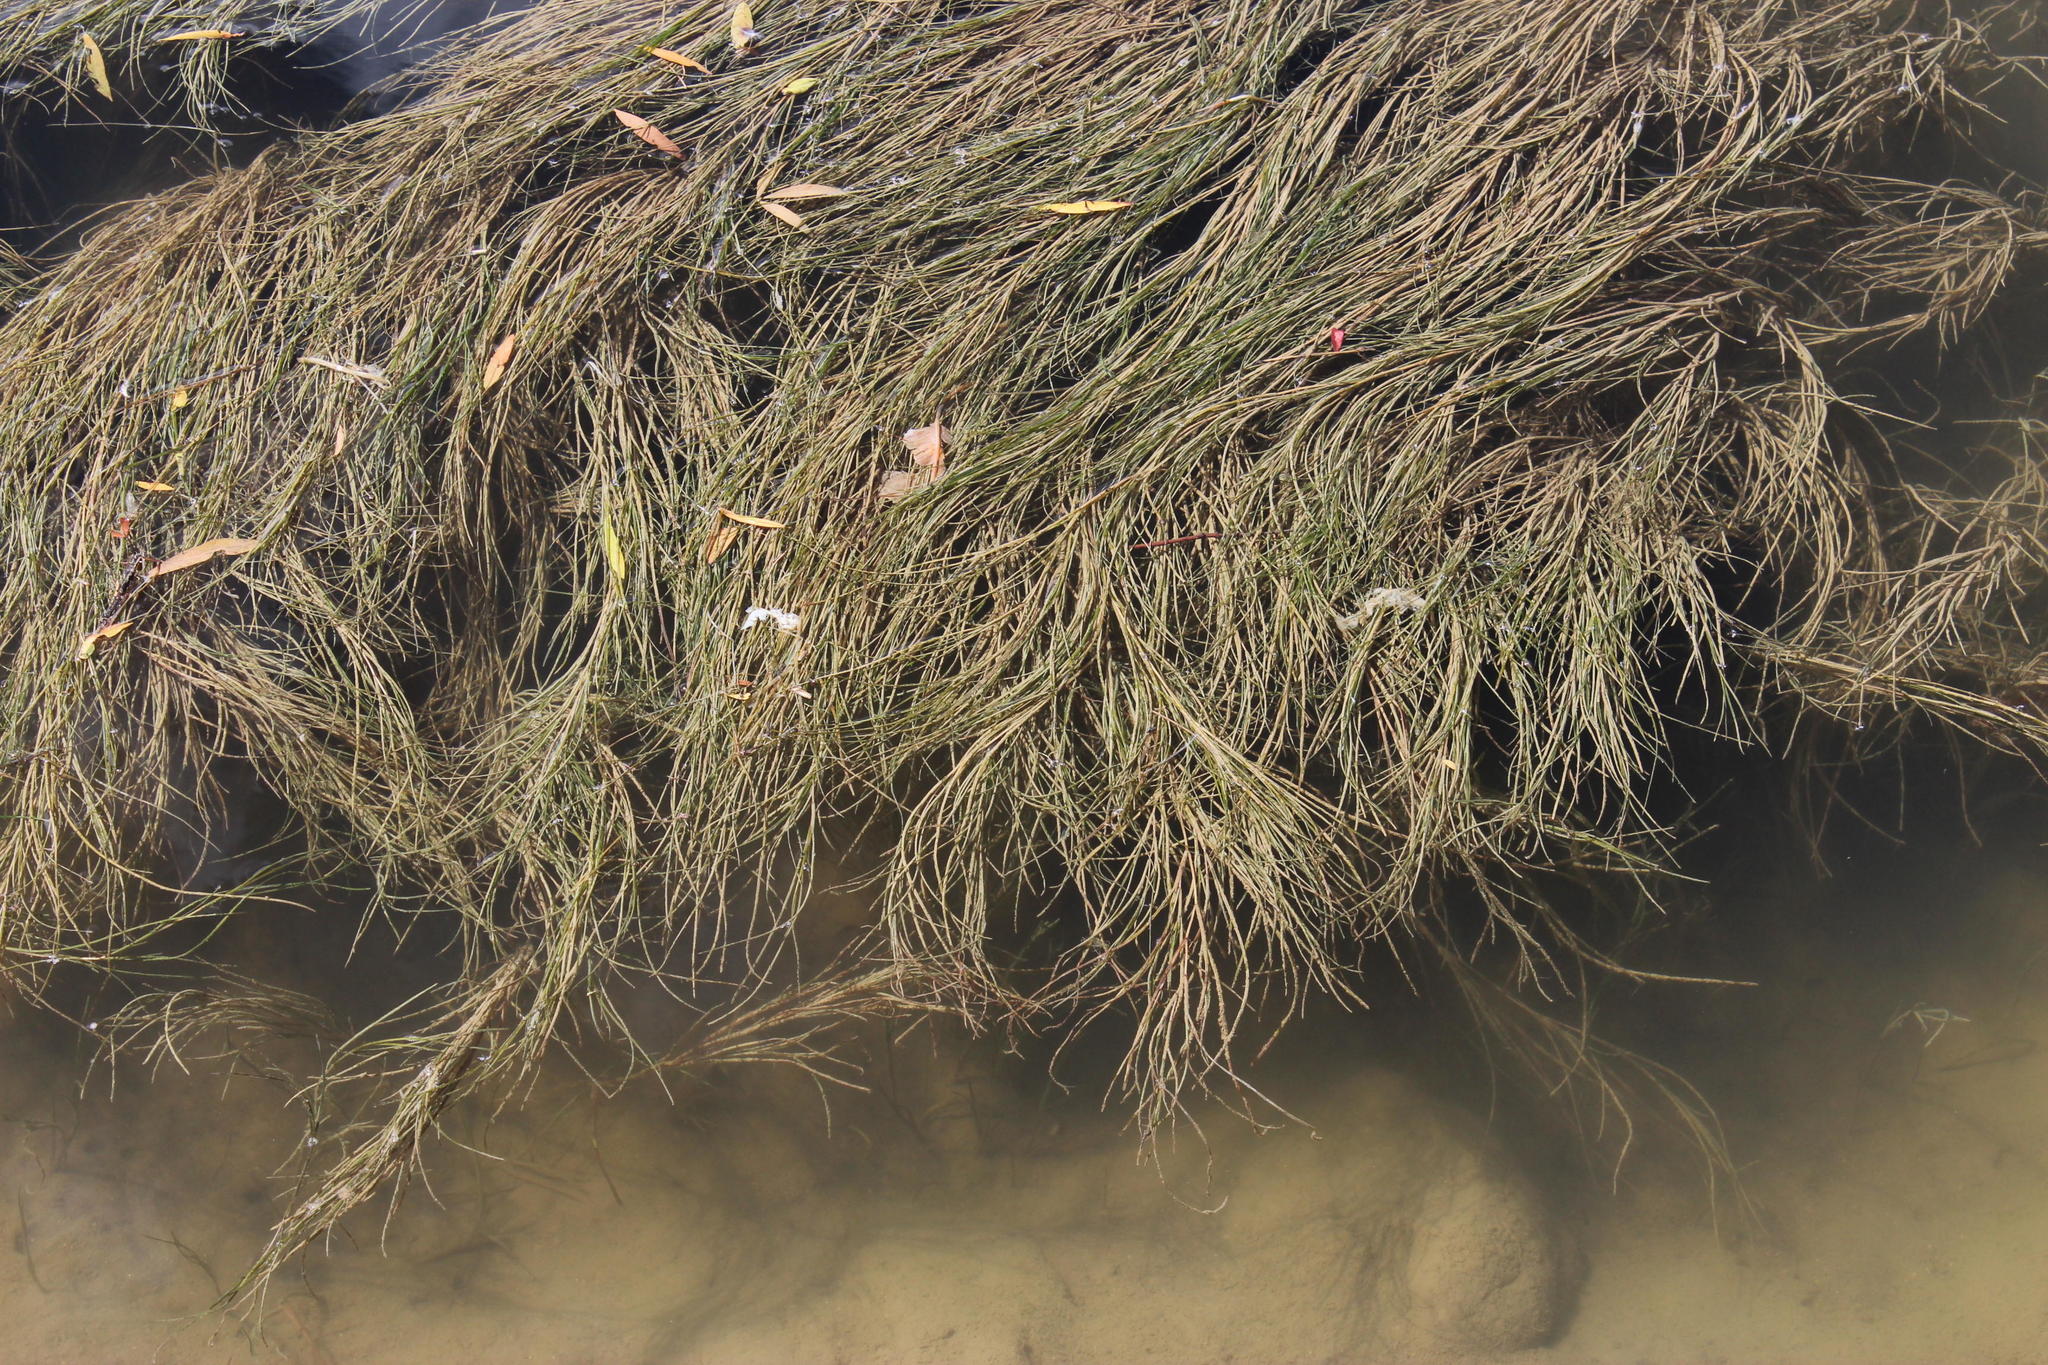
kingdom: Plantae
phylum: Tracheophyta
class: Liliopsida
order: Alismatales
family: Potamogetonaceae
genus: Stuckenia
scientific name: Stuckenia pectinata
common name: Sago pondweed
